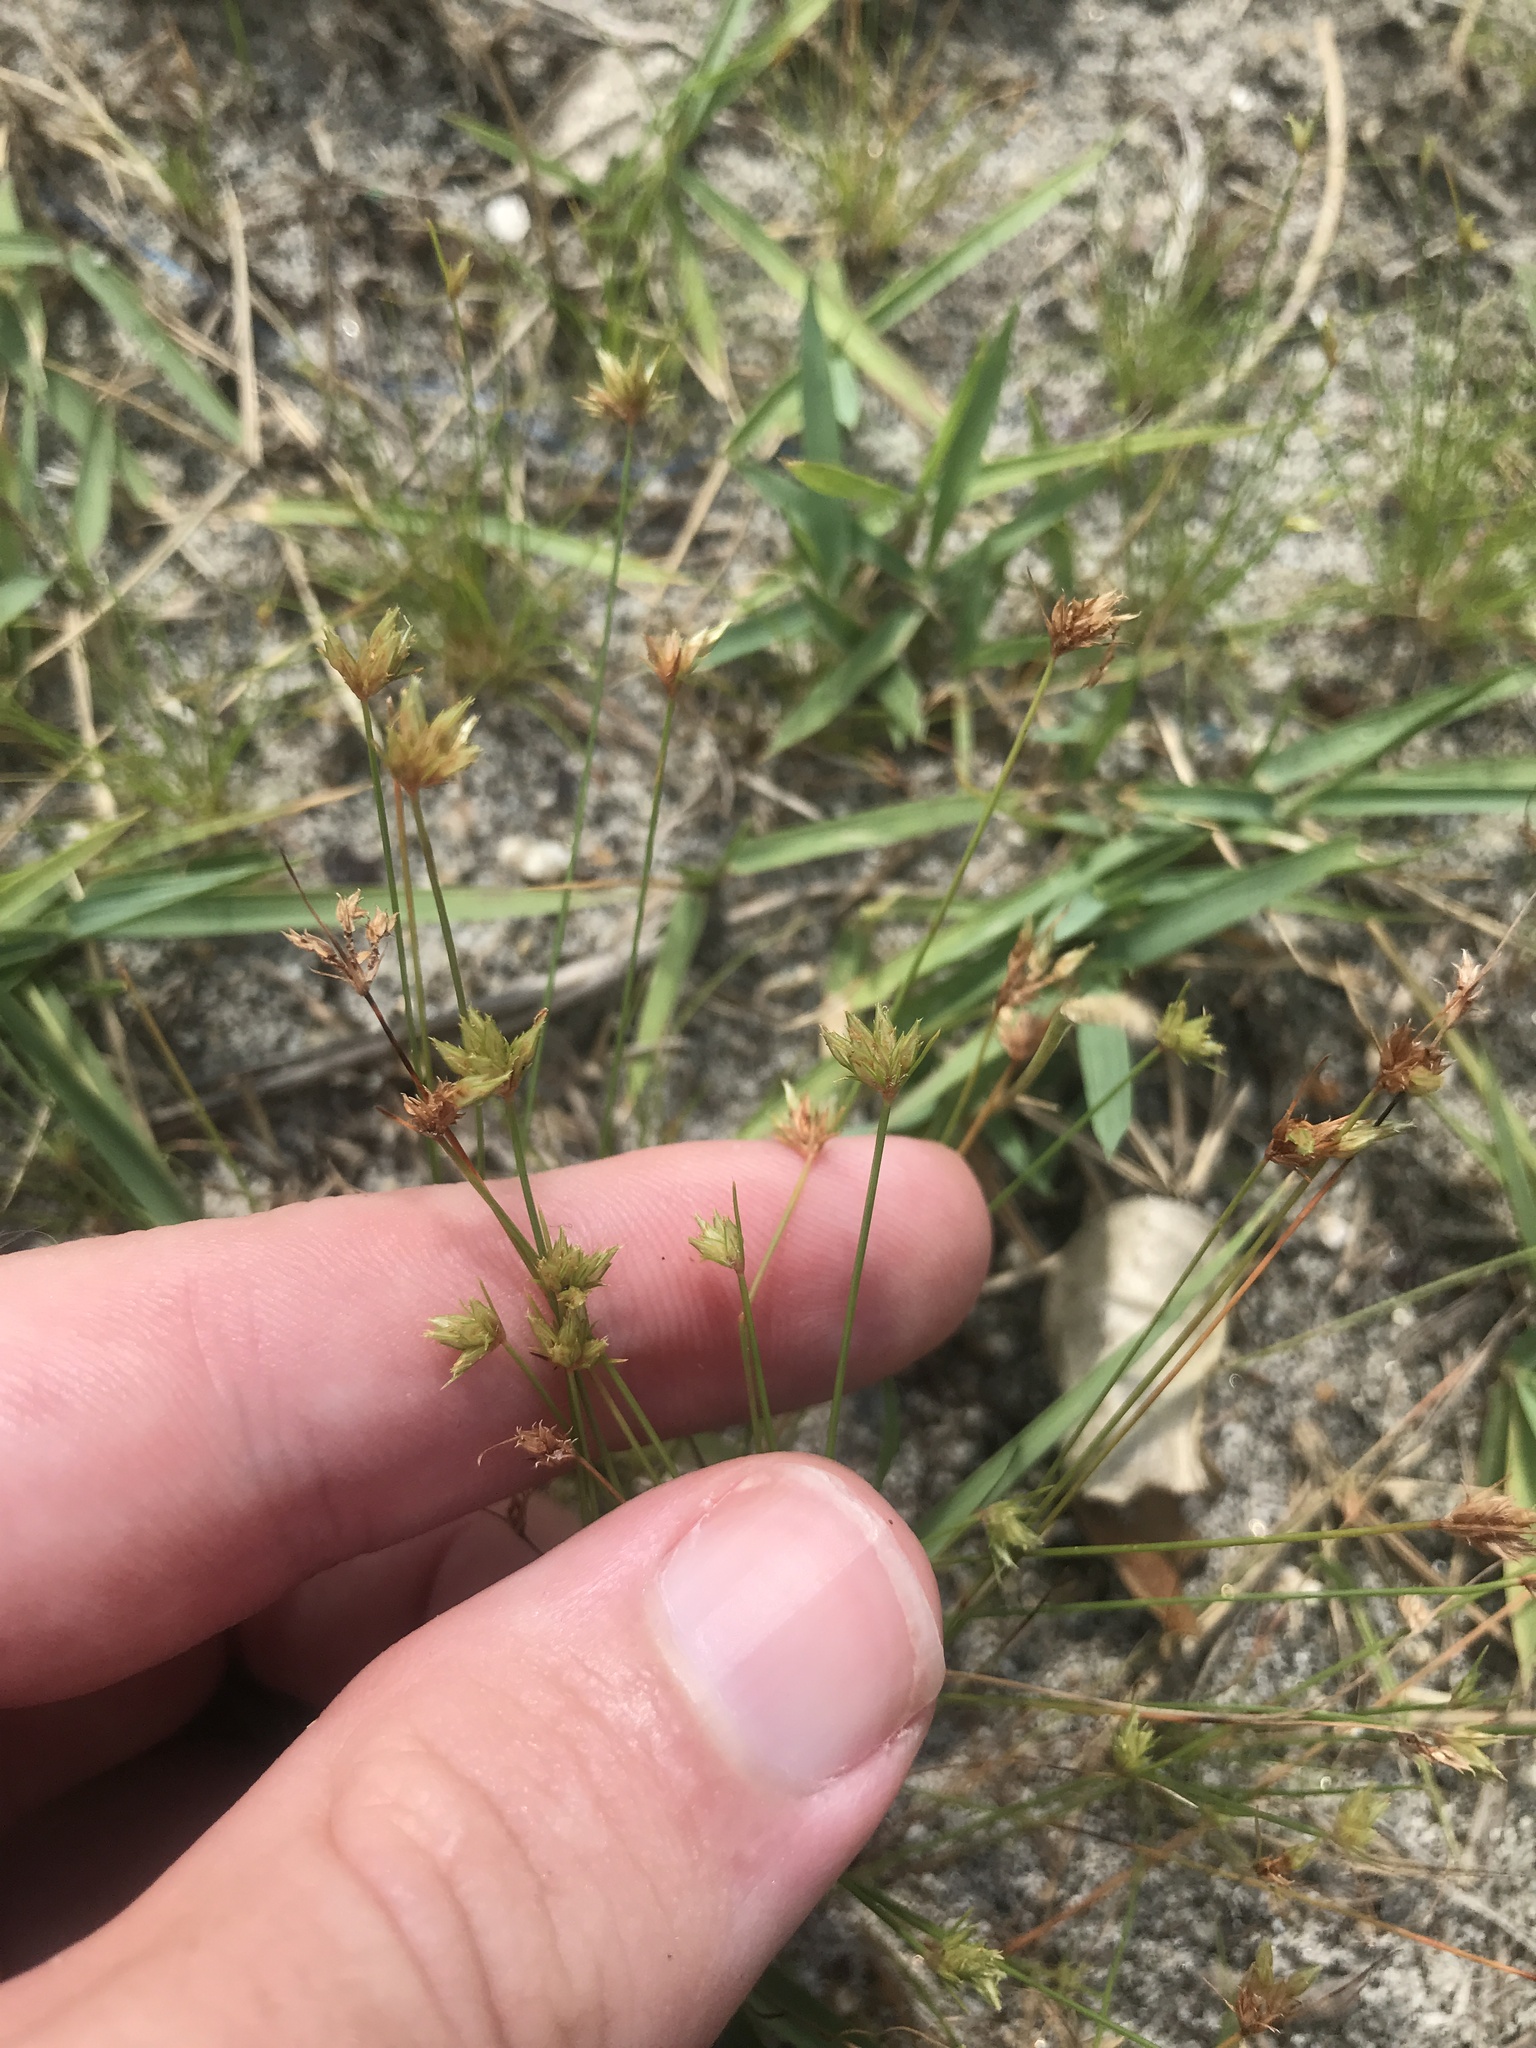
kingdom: Plantae
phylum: Tracheophyta
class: Liliopsida
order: Poales
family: Cyperaceae
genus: Bulbostylis
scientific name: Bulbostylis barbata
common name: Watergrass
